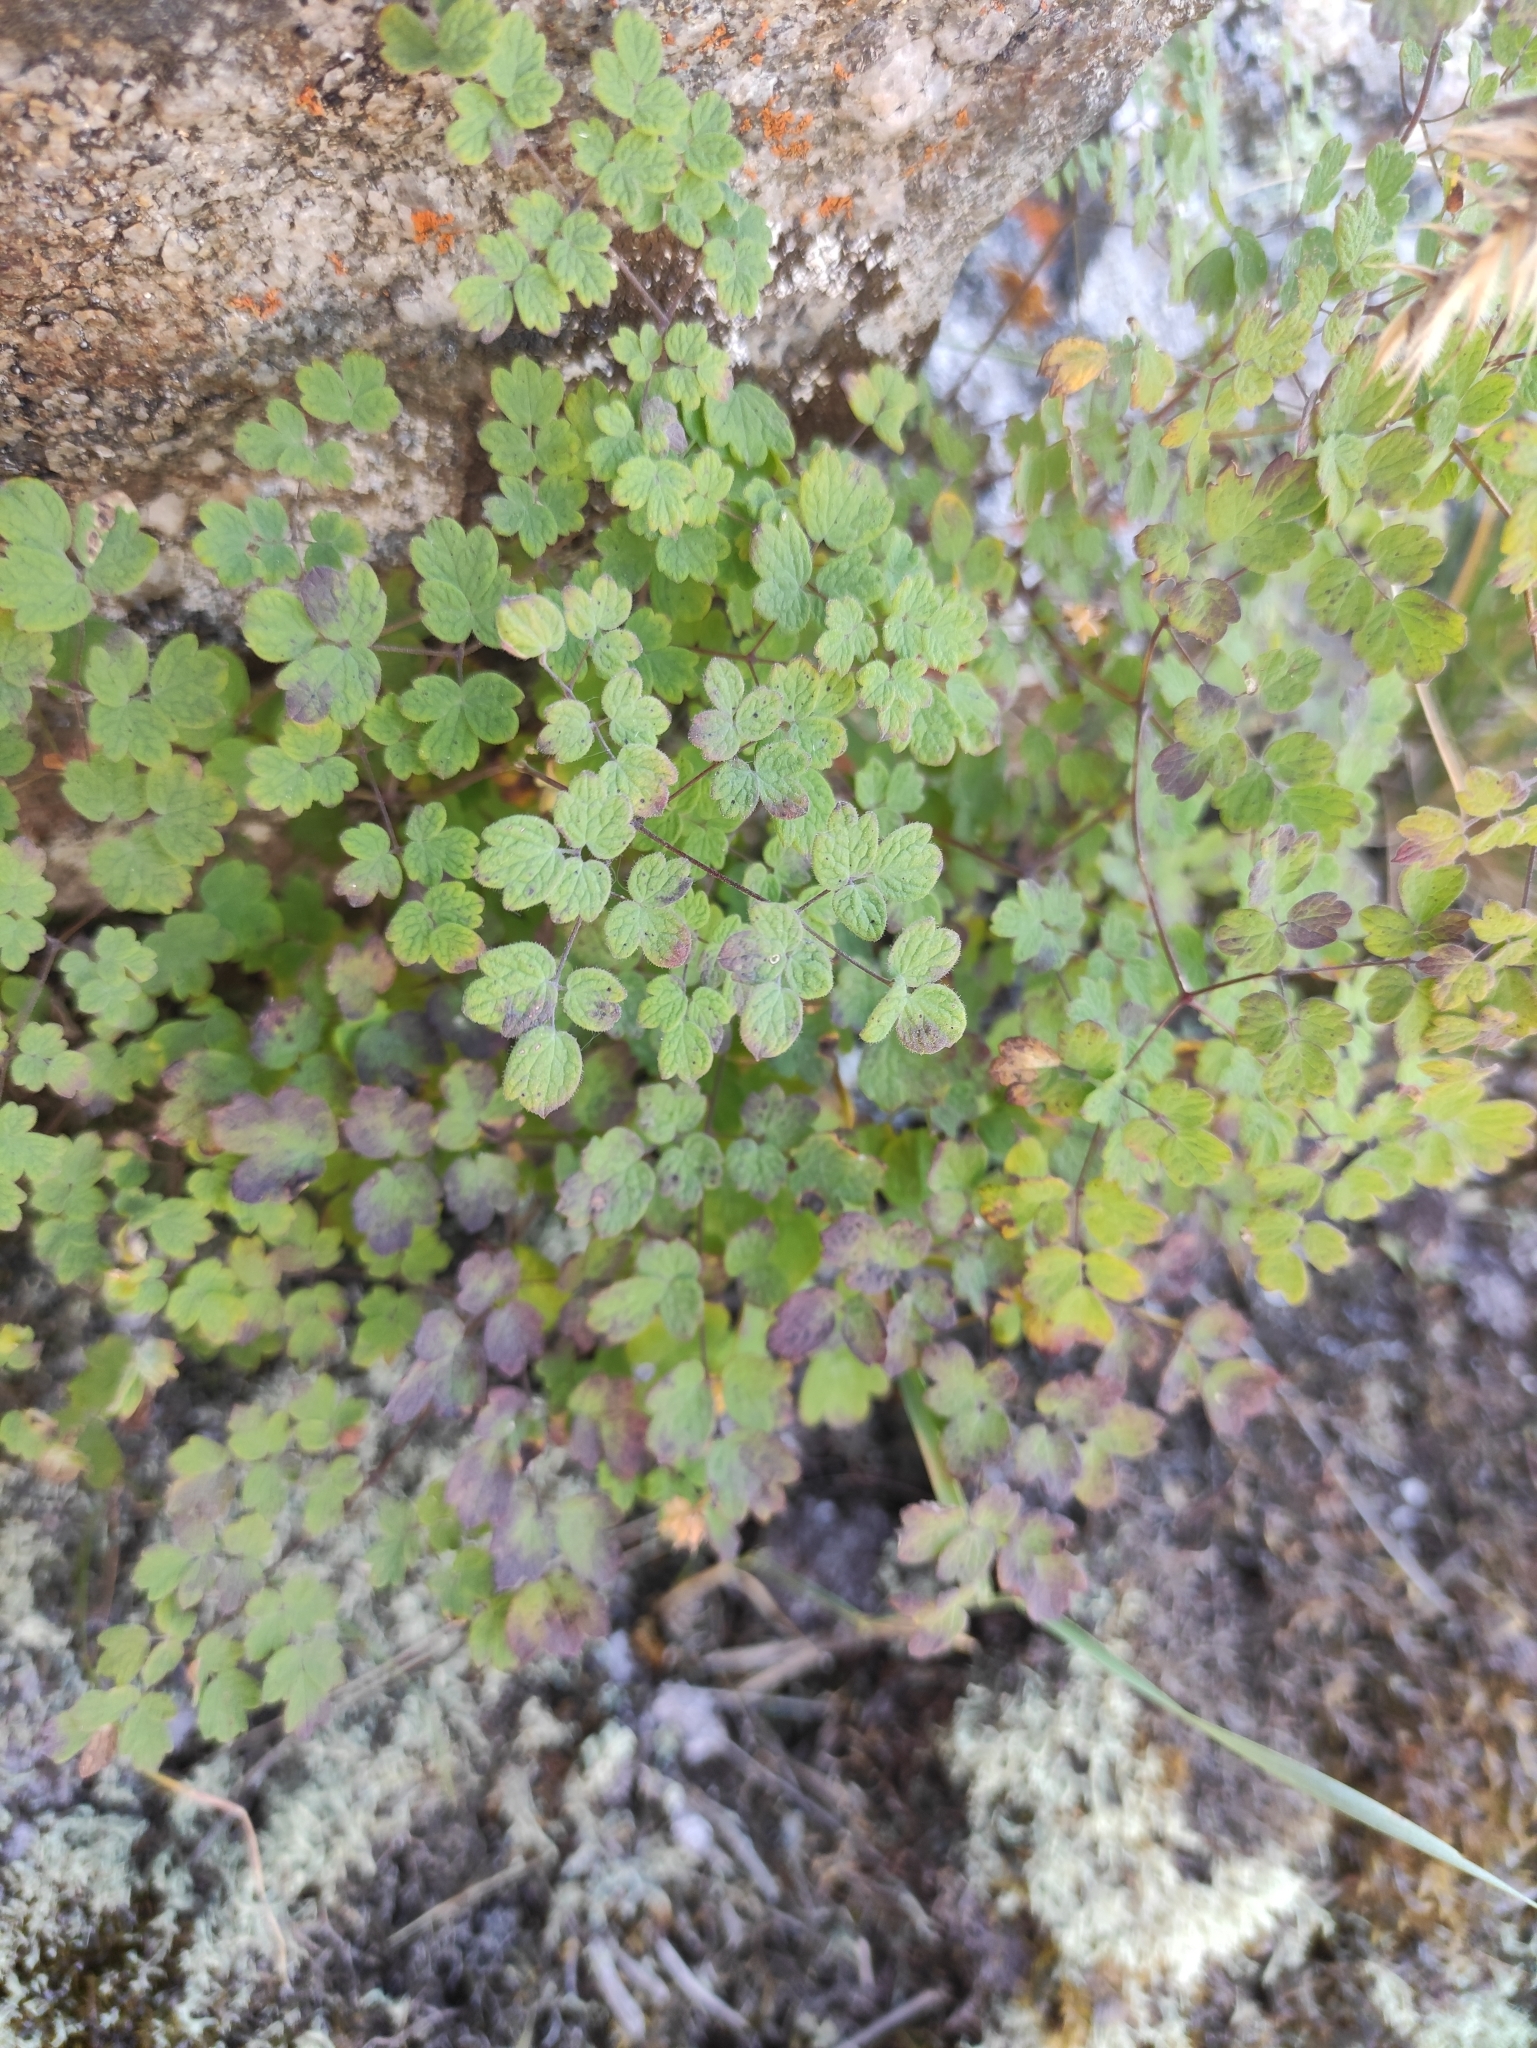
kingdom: Plantae
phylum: Tracheophyta
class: Magnoliopsida
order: Ranunculales
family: Ranunculaceae
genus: Thalictrum
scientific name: Thalictrum foetidum
